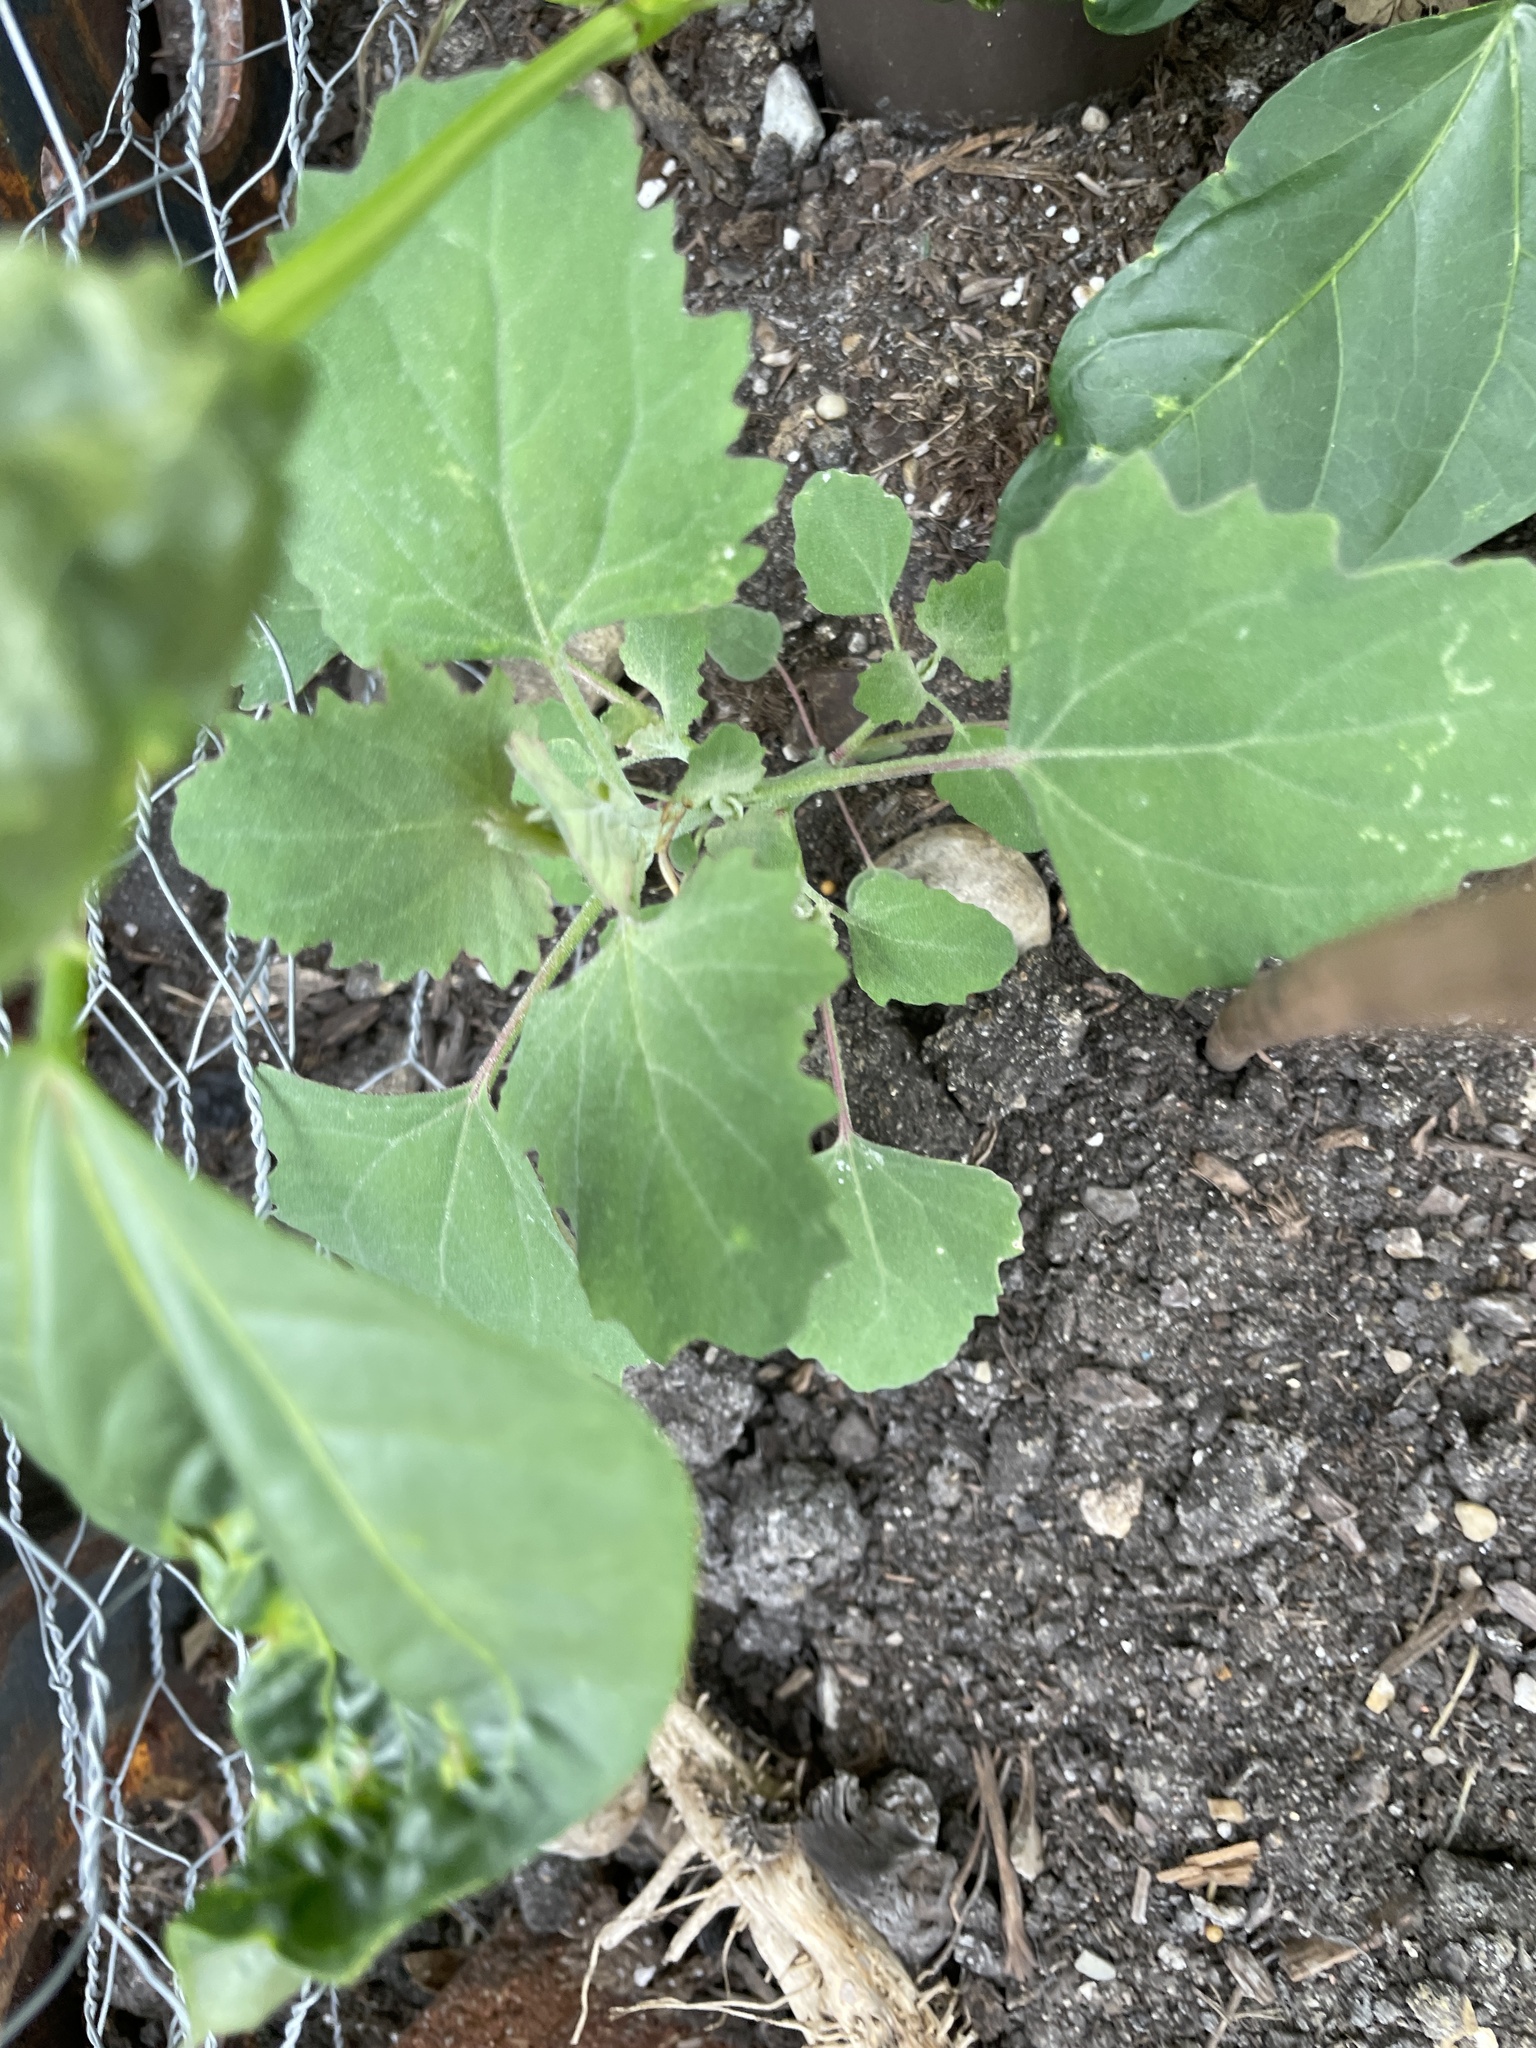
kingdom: Plantae
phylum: Tracheophyta
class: Magnoliopsida
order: Caryophyllales
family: Amaranthaceae
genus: Chenopodium
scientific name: Chenopodium album
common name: Fat-hen
